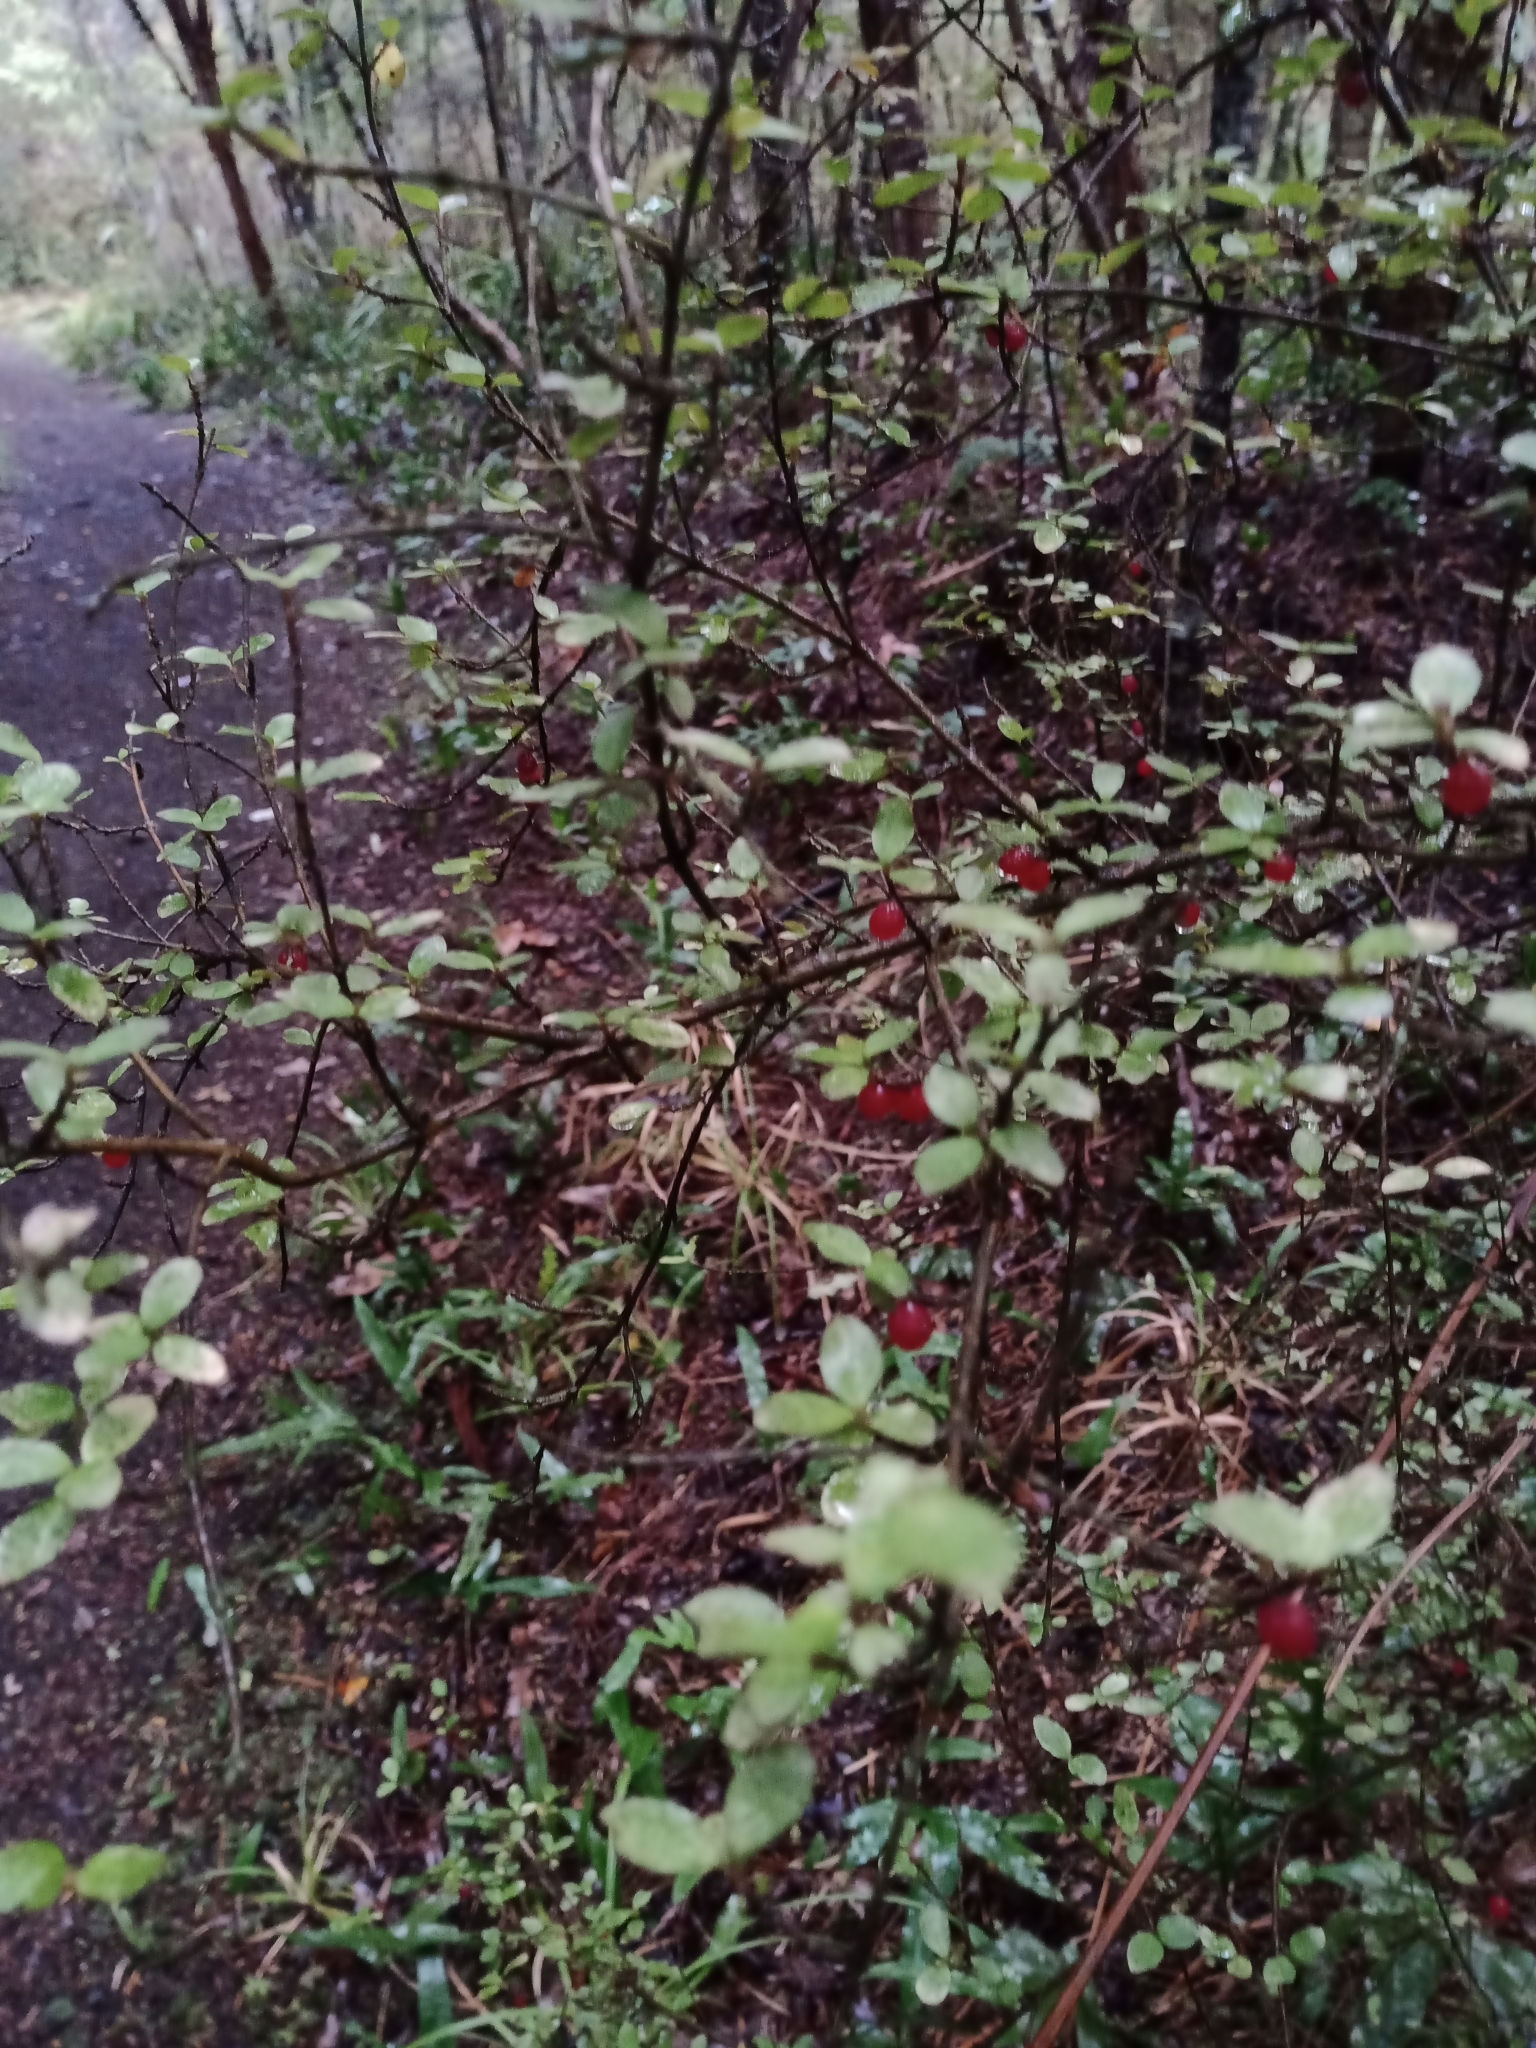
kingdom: Plantae
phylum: Tracheophyta
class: Magnoliopsida
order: Gentianales
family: Rubiaceae
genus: Coprosma
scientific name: Coprosma rhamnoides
